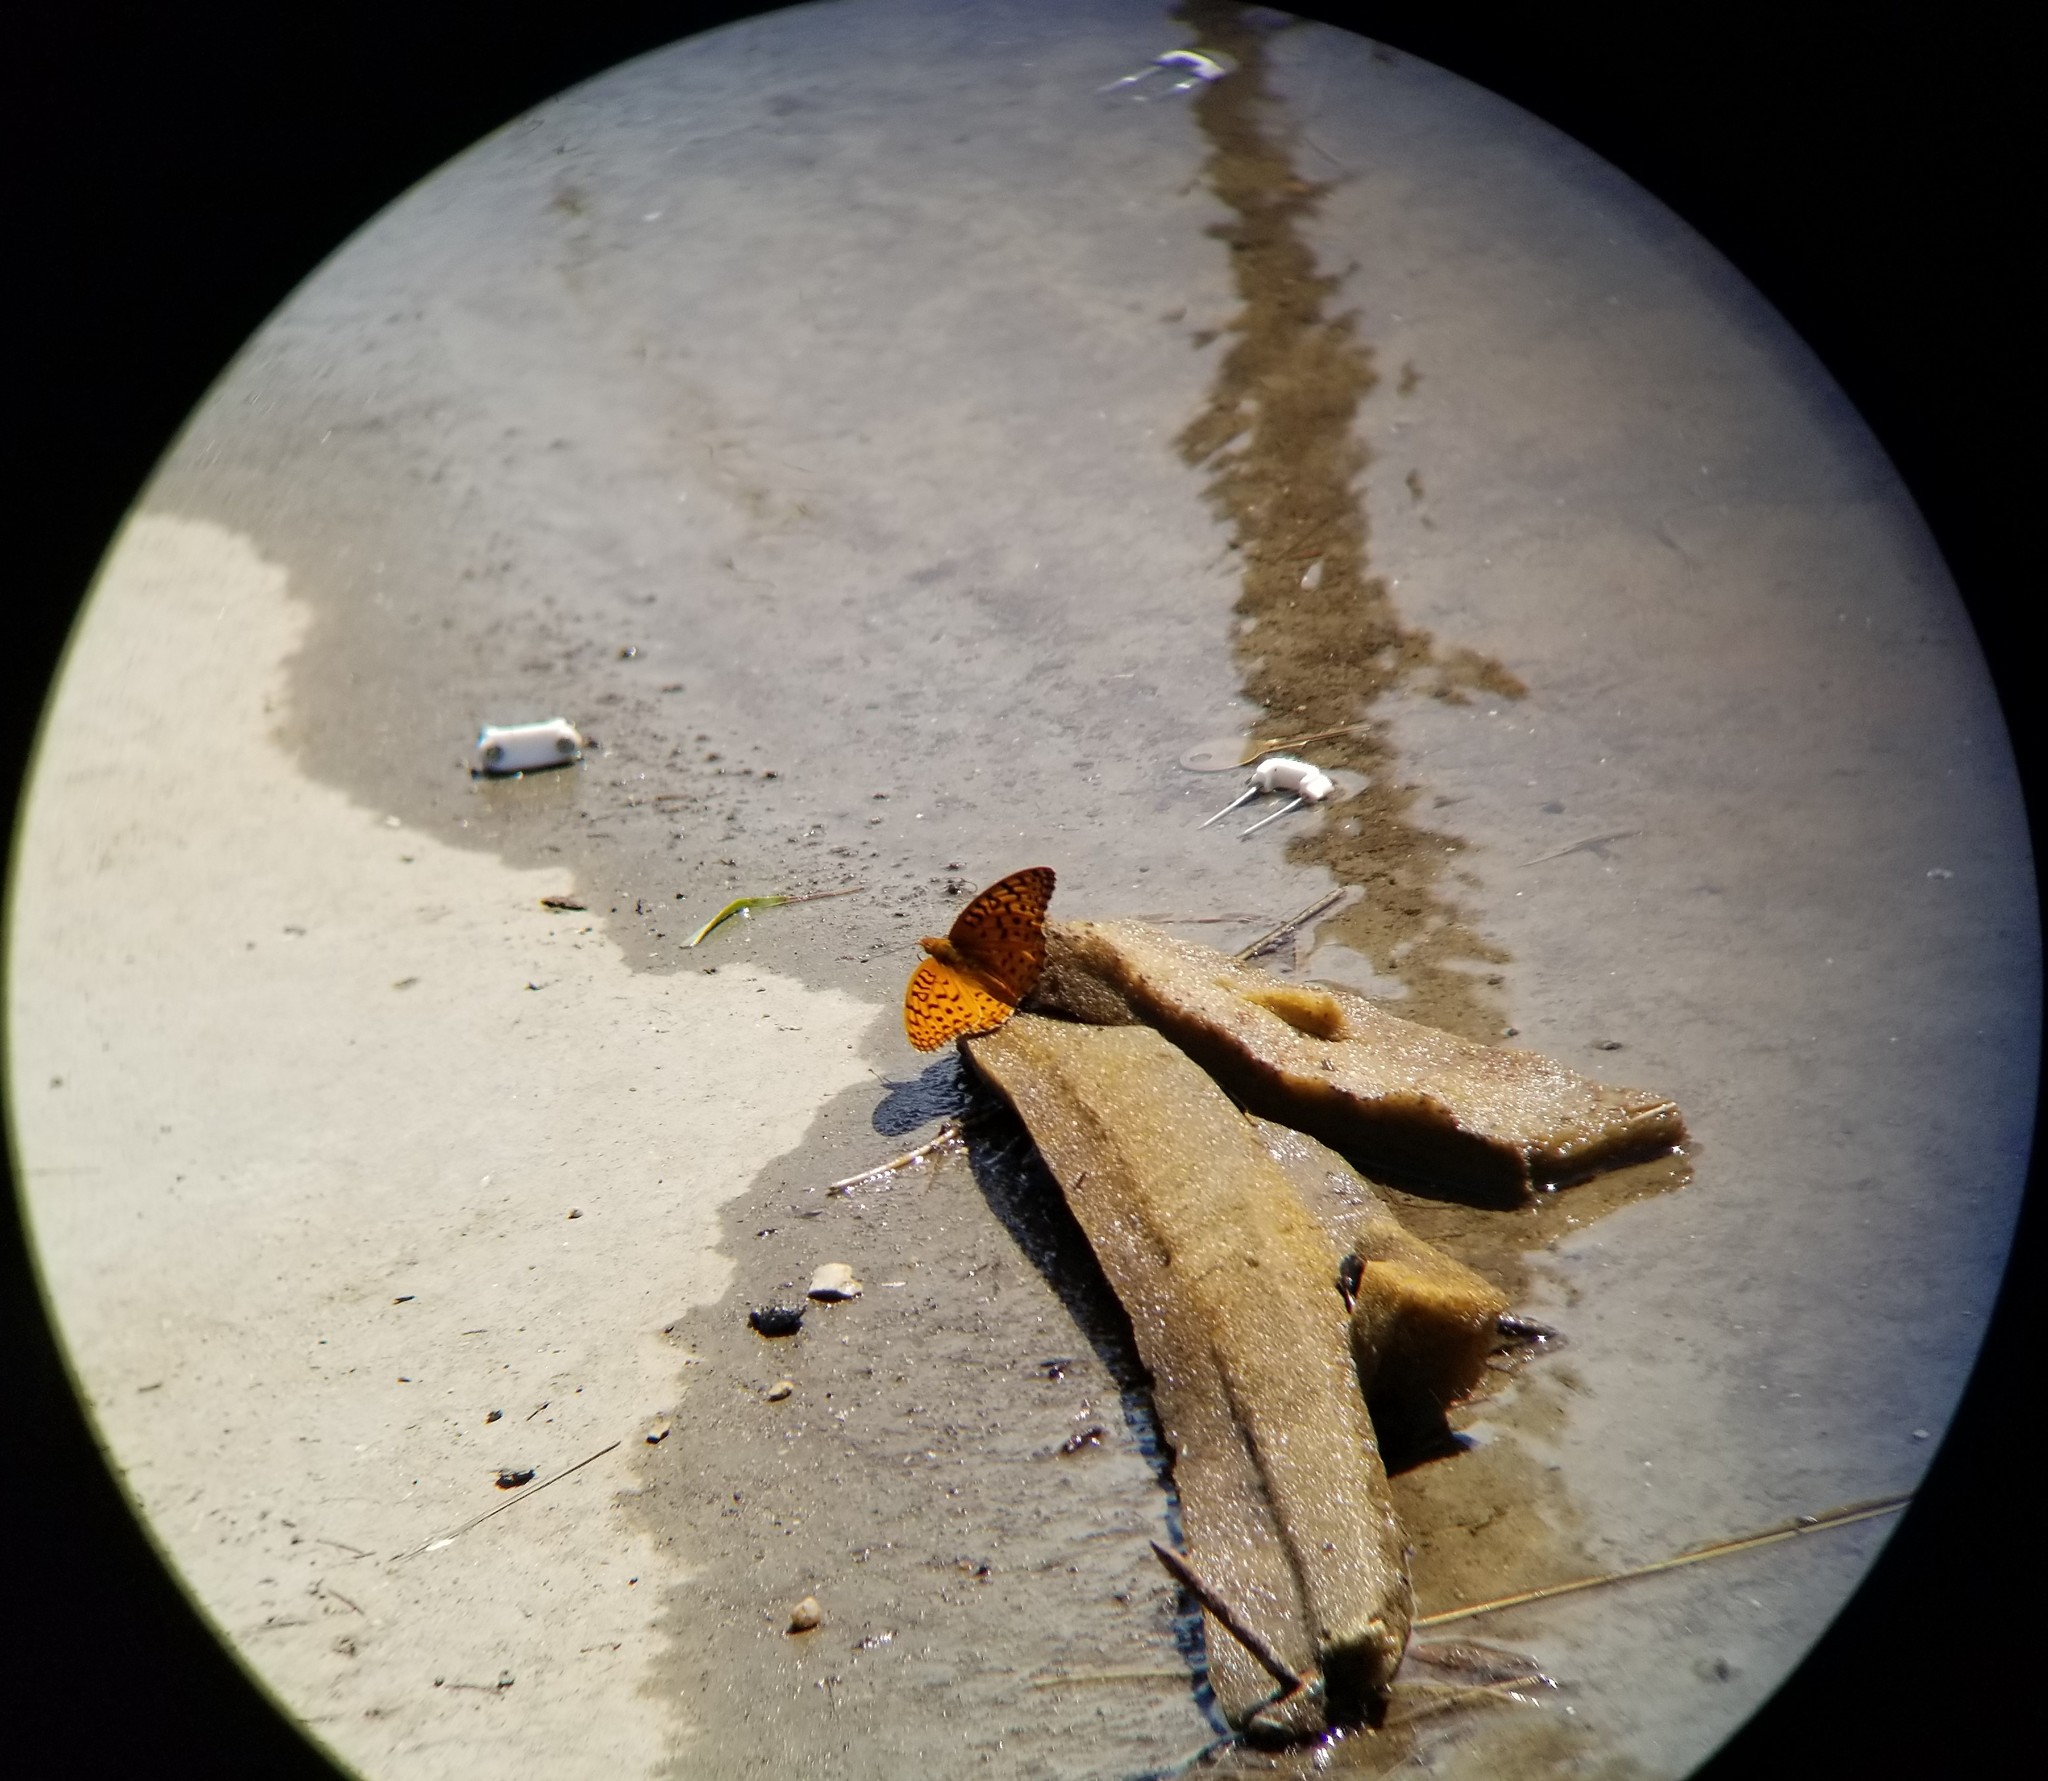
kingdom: Animalia
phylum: Arthropoda
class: Insecta
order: Lepidoptera
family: Nymphalidae
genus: Speyeria
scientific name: Speyeria aphrodite
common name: Aphrodite friitllary
